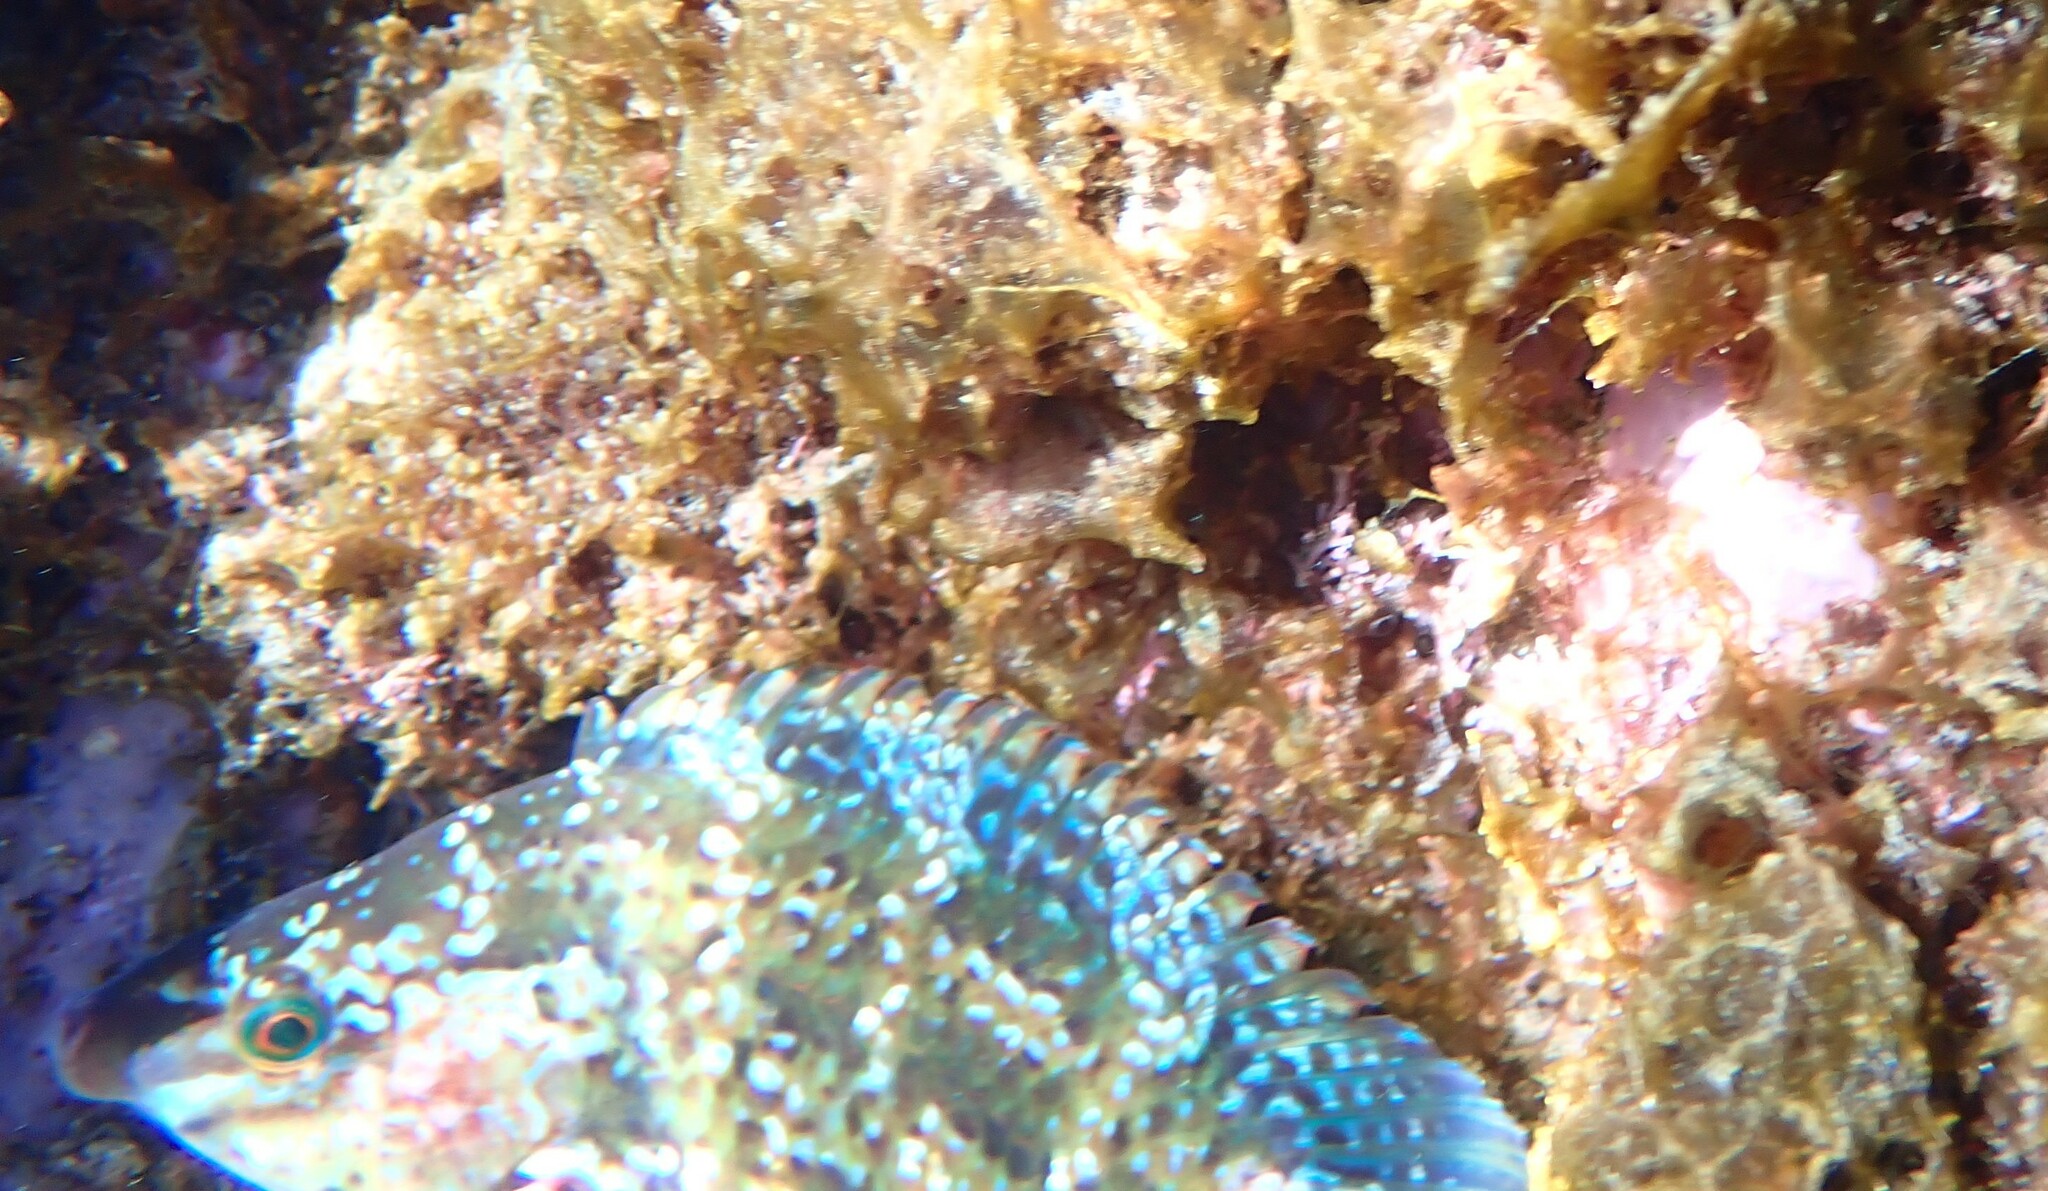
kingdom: Animalia
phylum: Chordata
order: Perciformes
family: Labridae
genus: Symphodus
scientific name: Symphodus caeruleus
